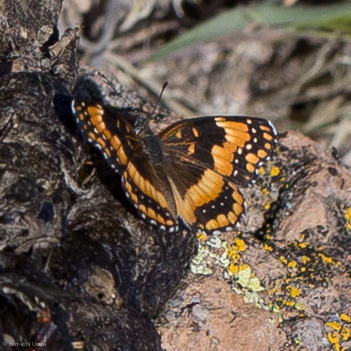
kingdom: Animalia
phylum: Arthropoda
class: Insecta
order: Lepidoptera
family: Nymphalidae
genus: Chlosyne
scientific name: Chlosyne californica
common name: California patch
